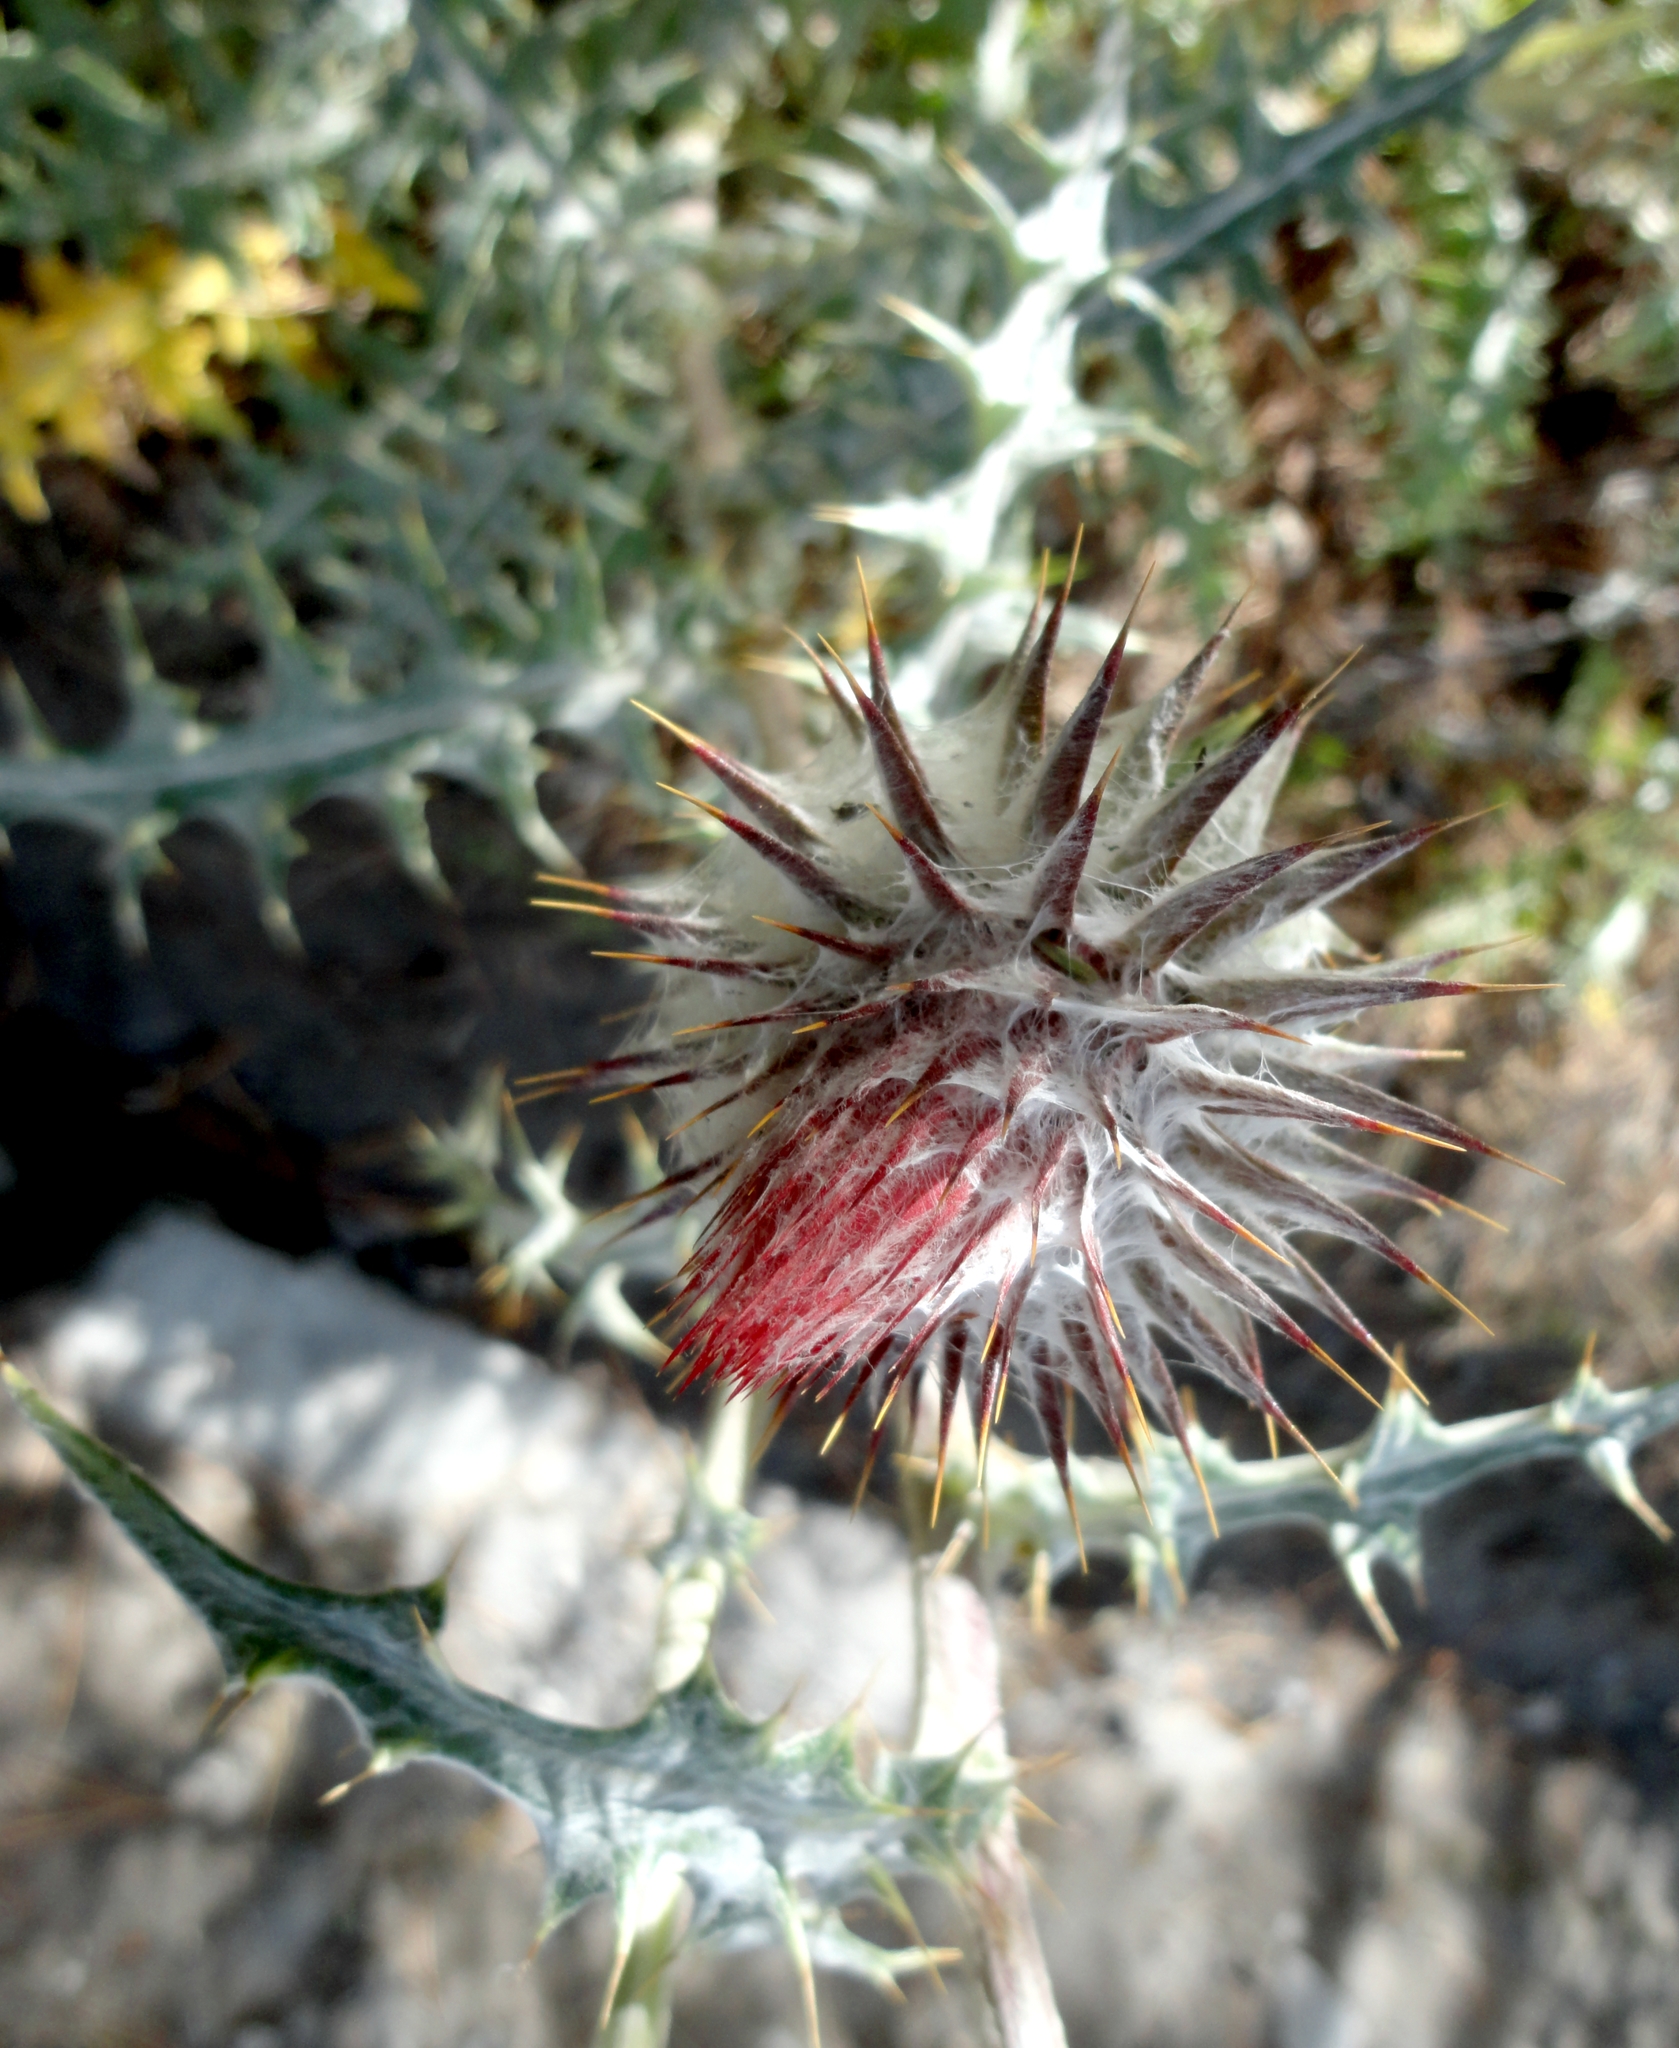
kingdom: Plantae
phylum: Tracheophyta
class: Magnoliopsida
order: Asterales
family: Asteraceae
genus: Cirsium
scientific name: Cirsium ehrenbergii
